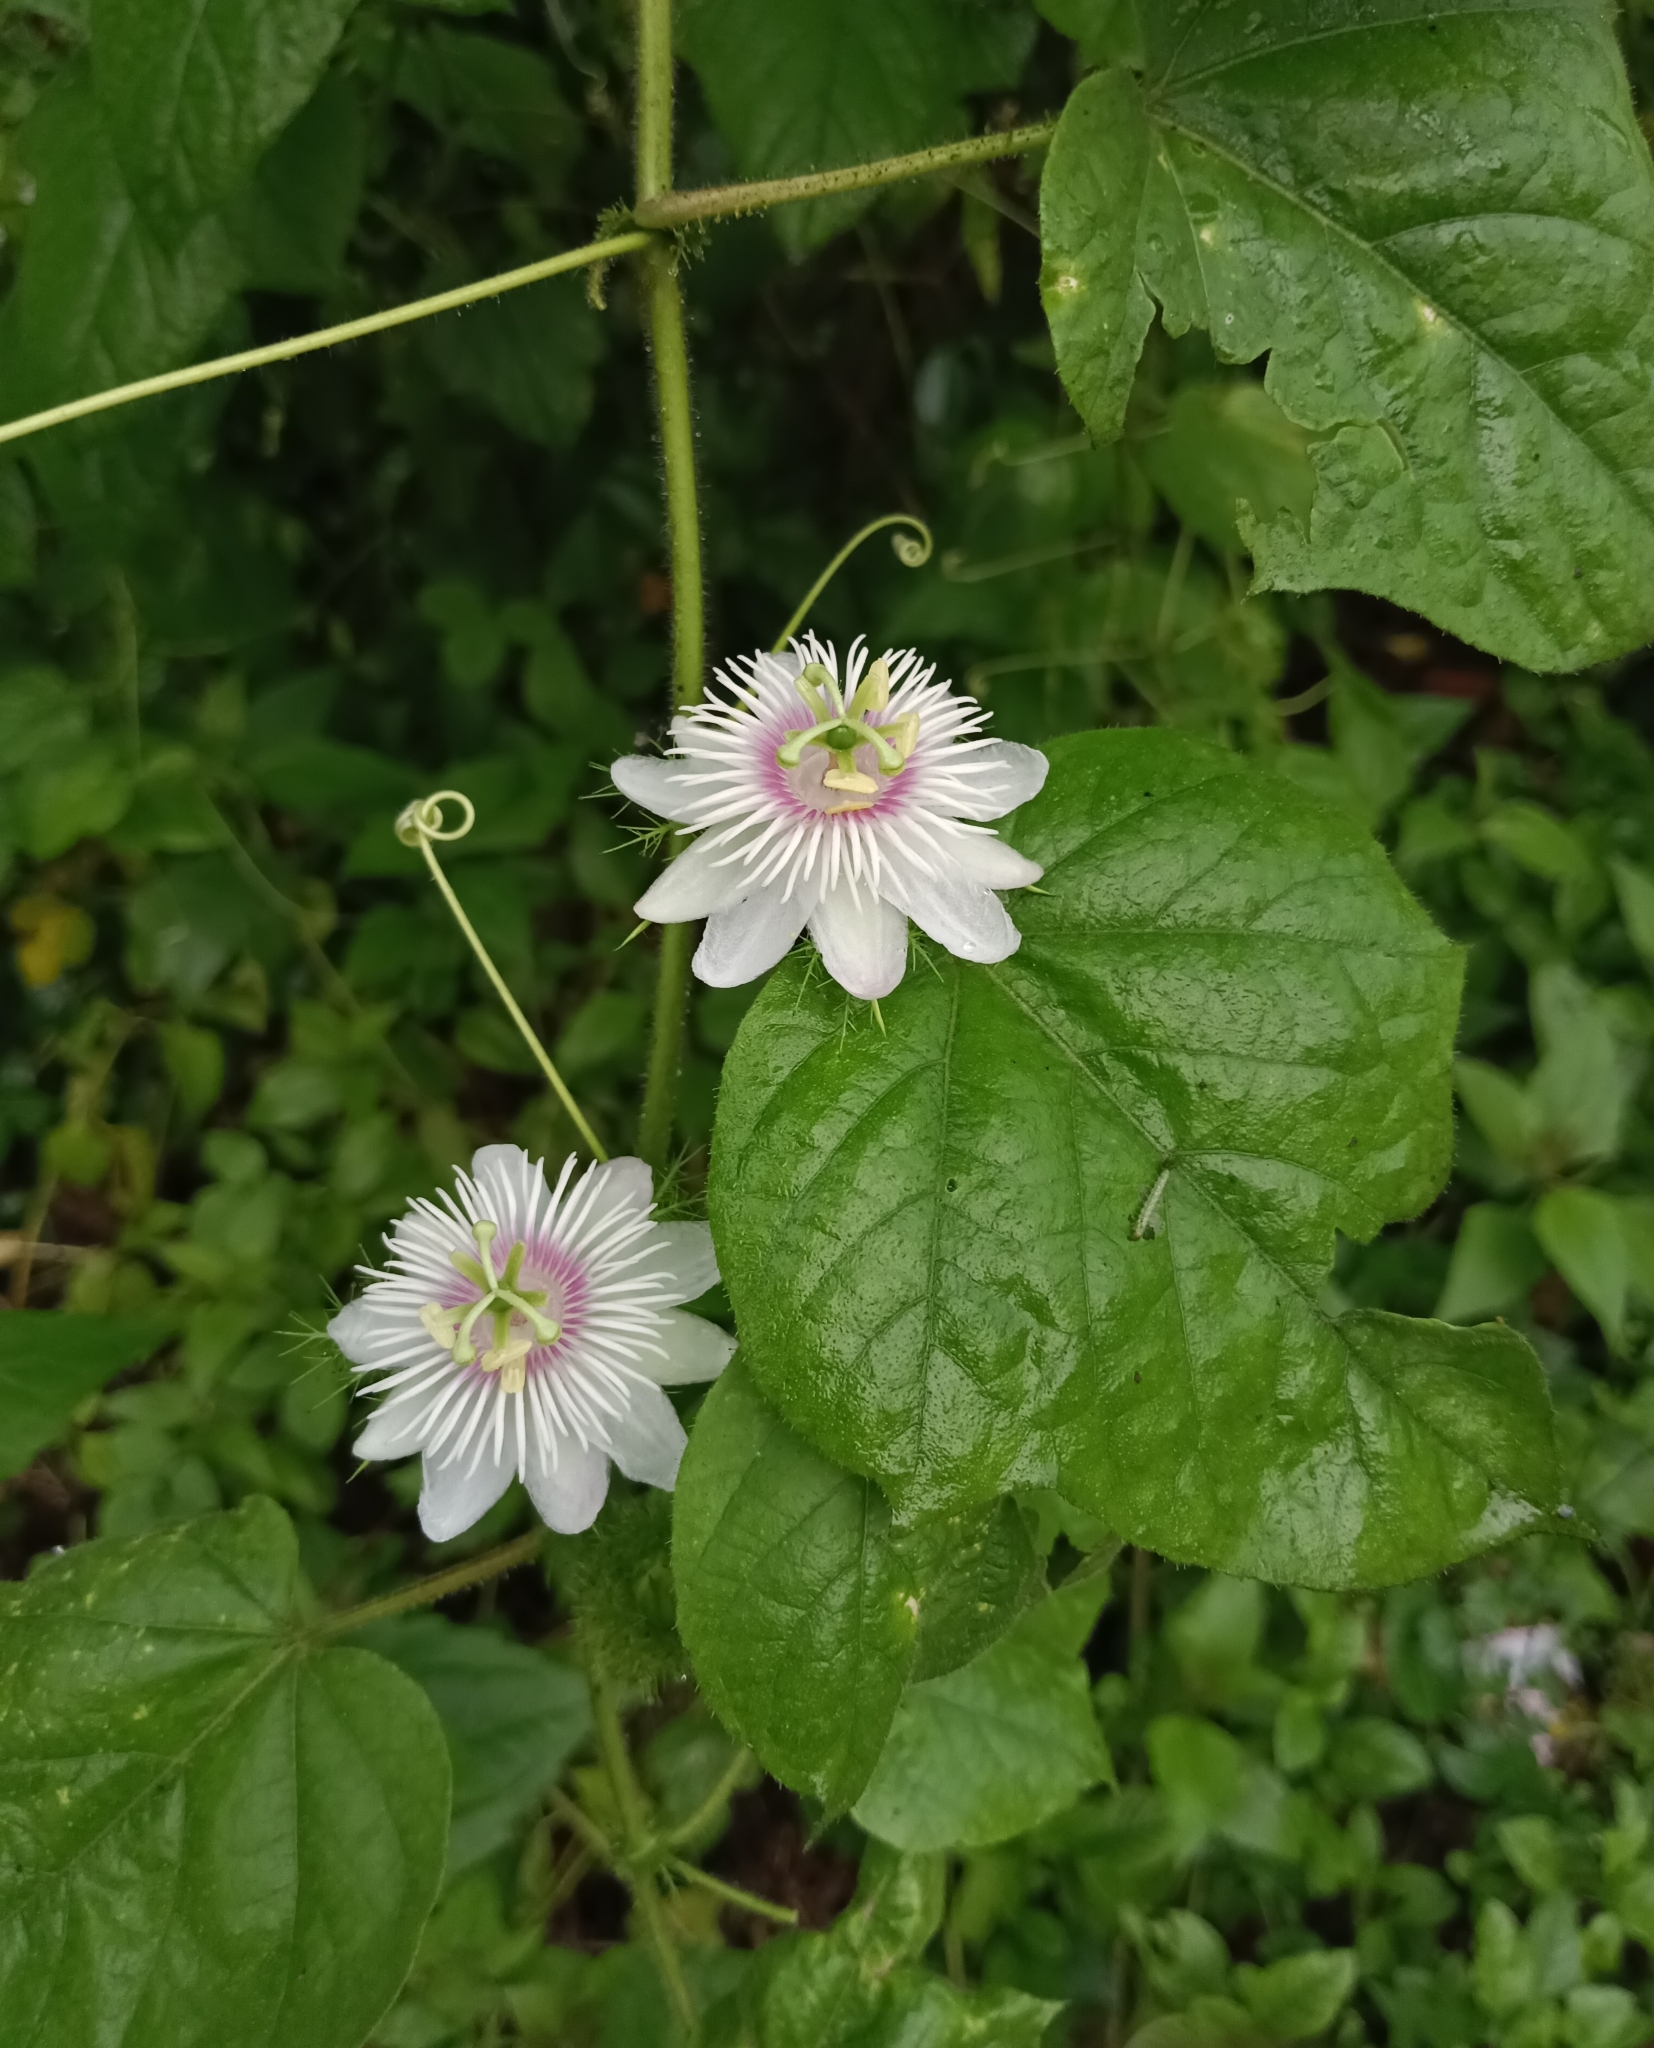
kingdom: Plantae
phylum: Tracheophyta
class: Magnoliopsida
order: Malpighiales
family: Passifloraceae
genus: Passiflora
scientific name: Passiflora vesicaria
